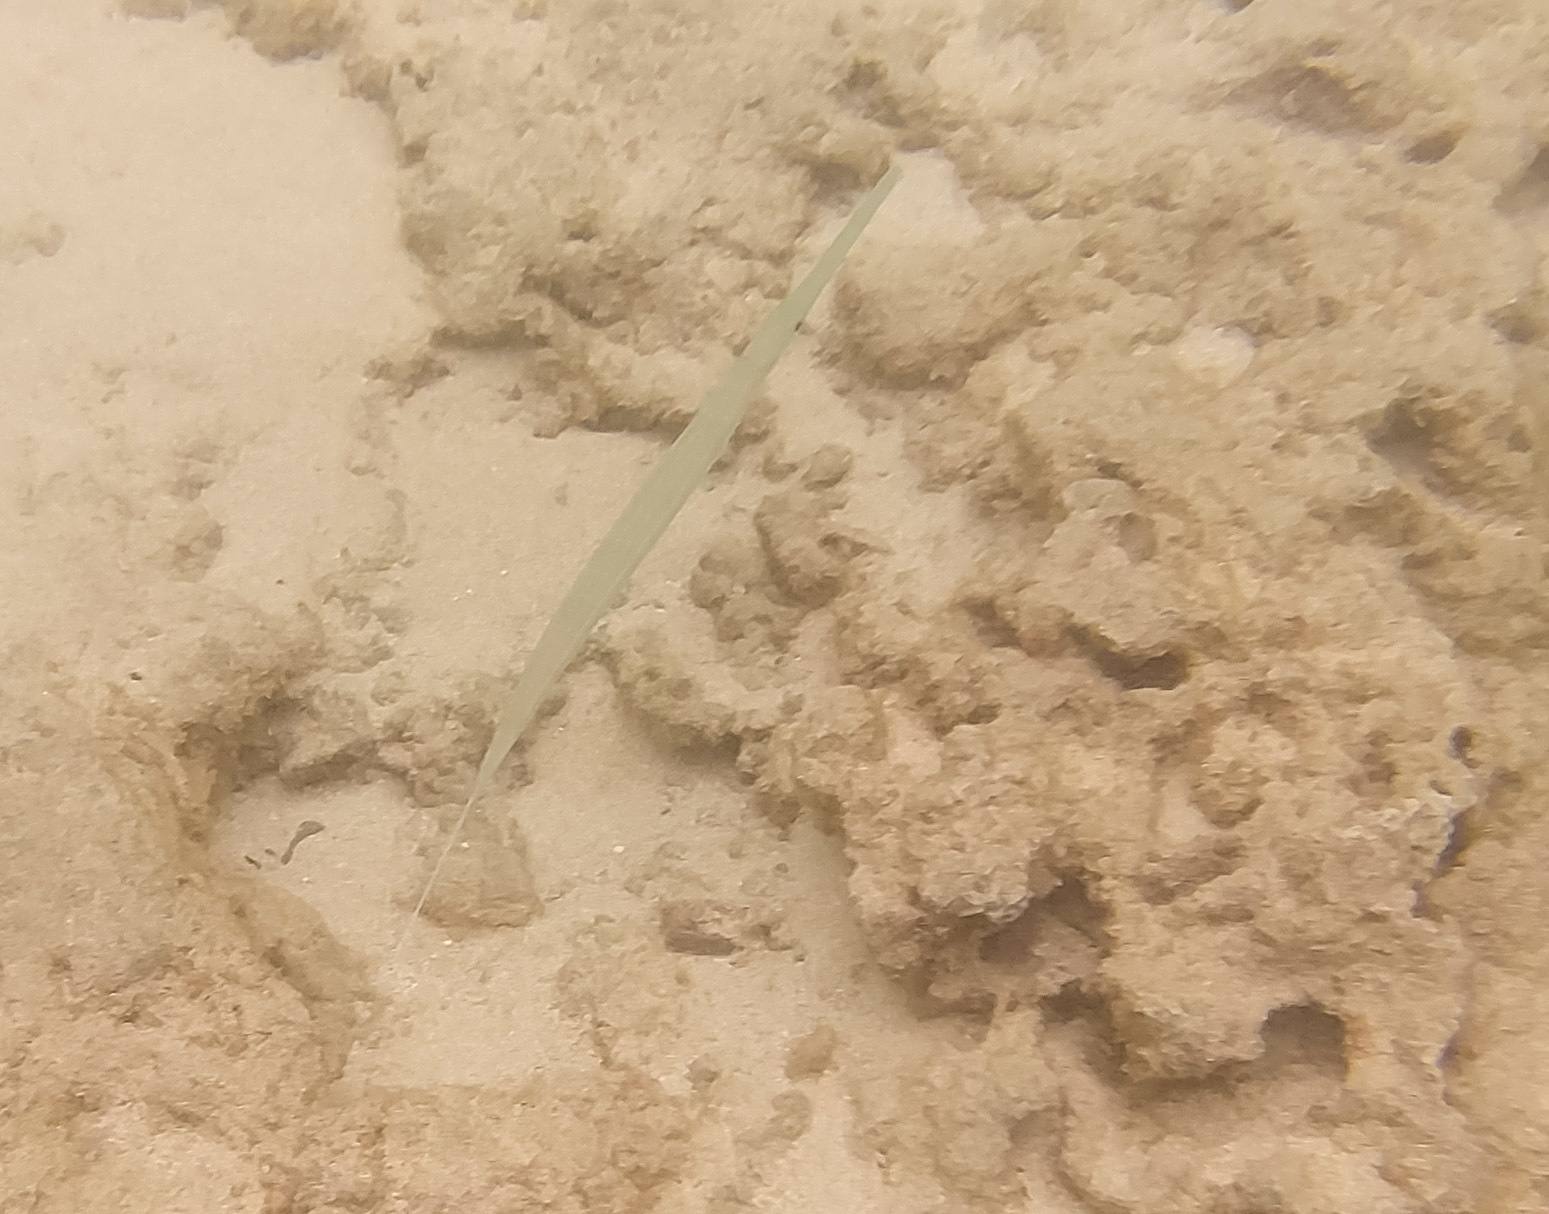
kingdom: Animalia
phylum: Chordata
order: Syngnathiformes
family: Fistulariidae
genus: Fistularia
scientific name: Fistularia commersonii
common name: Bluespotted cornetfish
